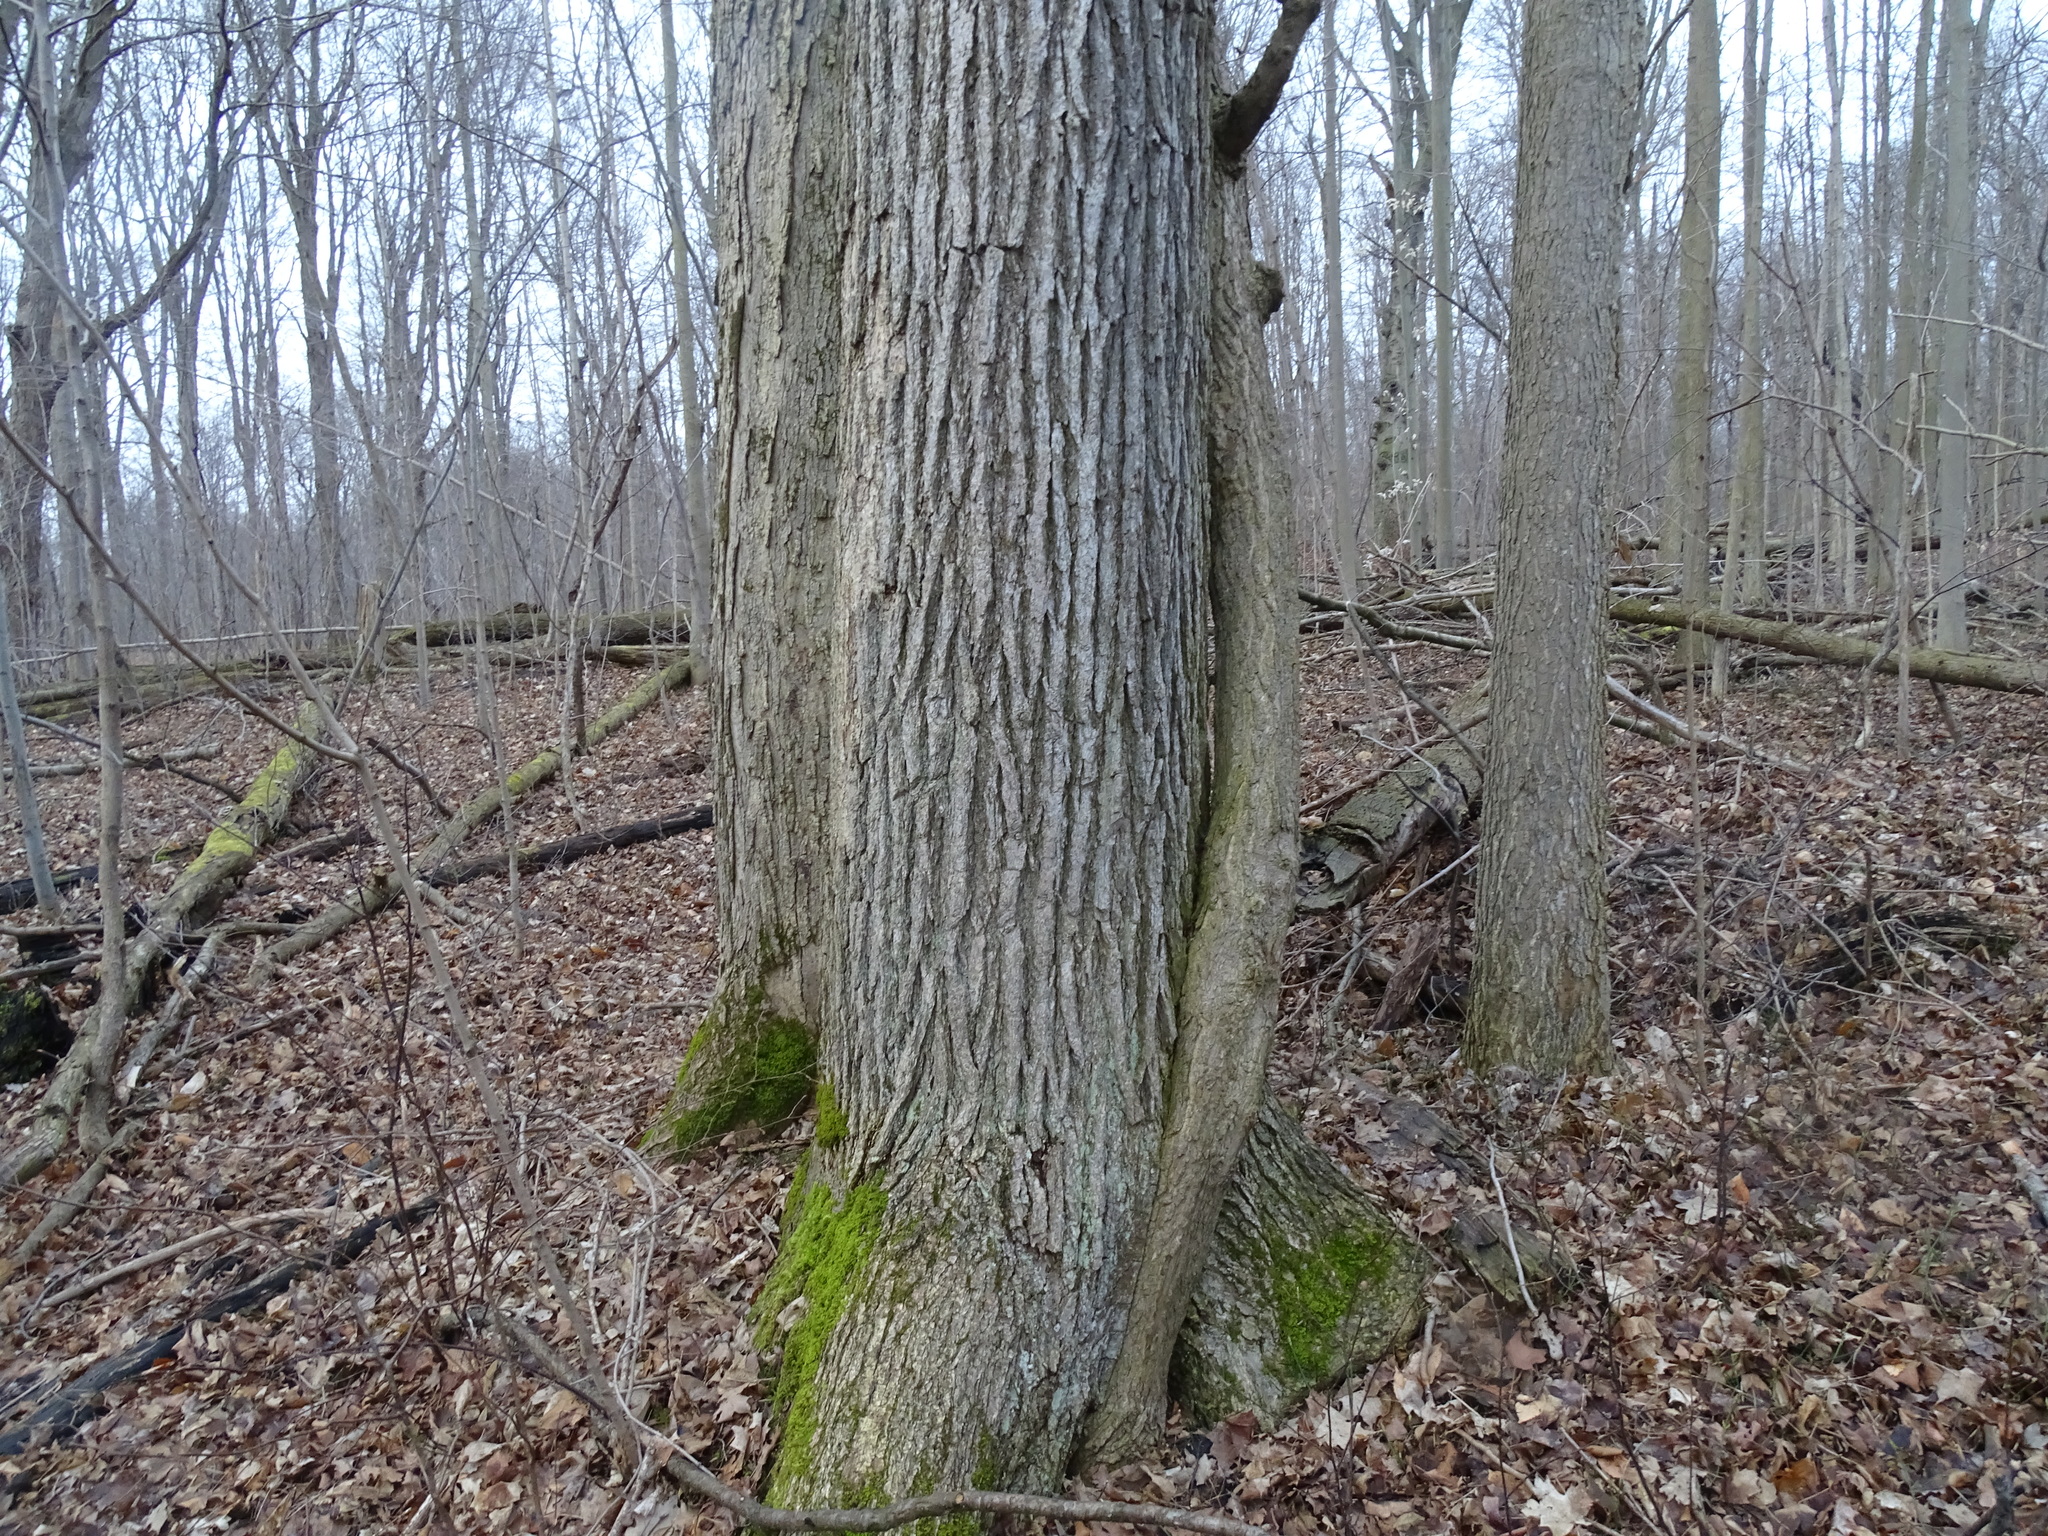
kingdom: Plantae
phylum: Tracheophyta
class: Magnoliopsida
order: Fagales
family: Fagaceae
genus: Quercus
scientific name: Quercus macrocarpa
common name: Bur oak
